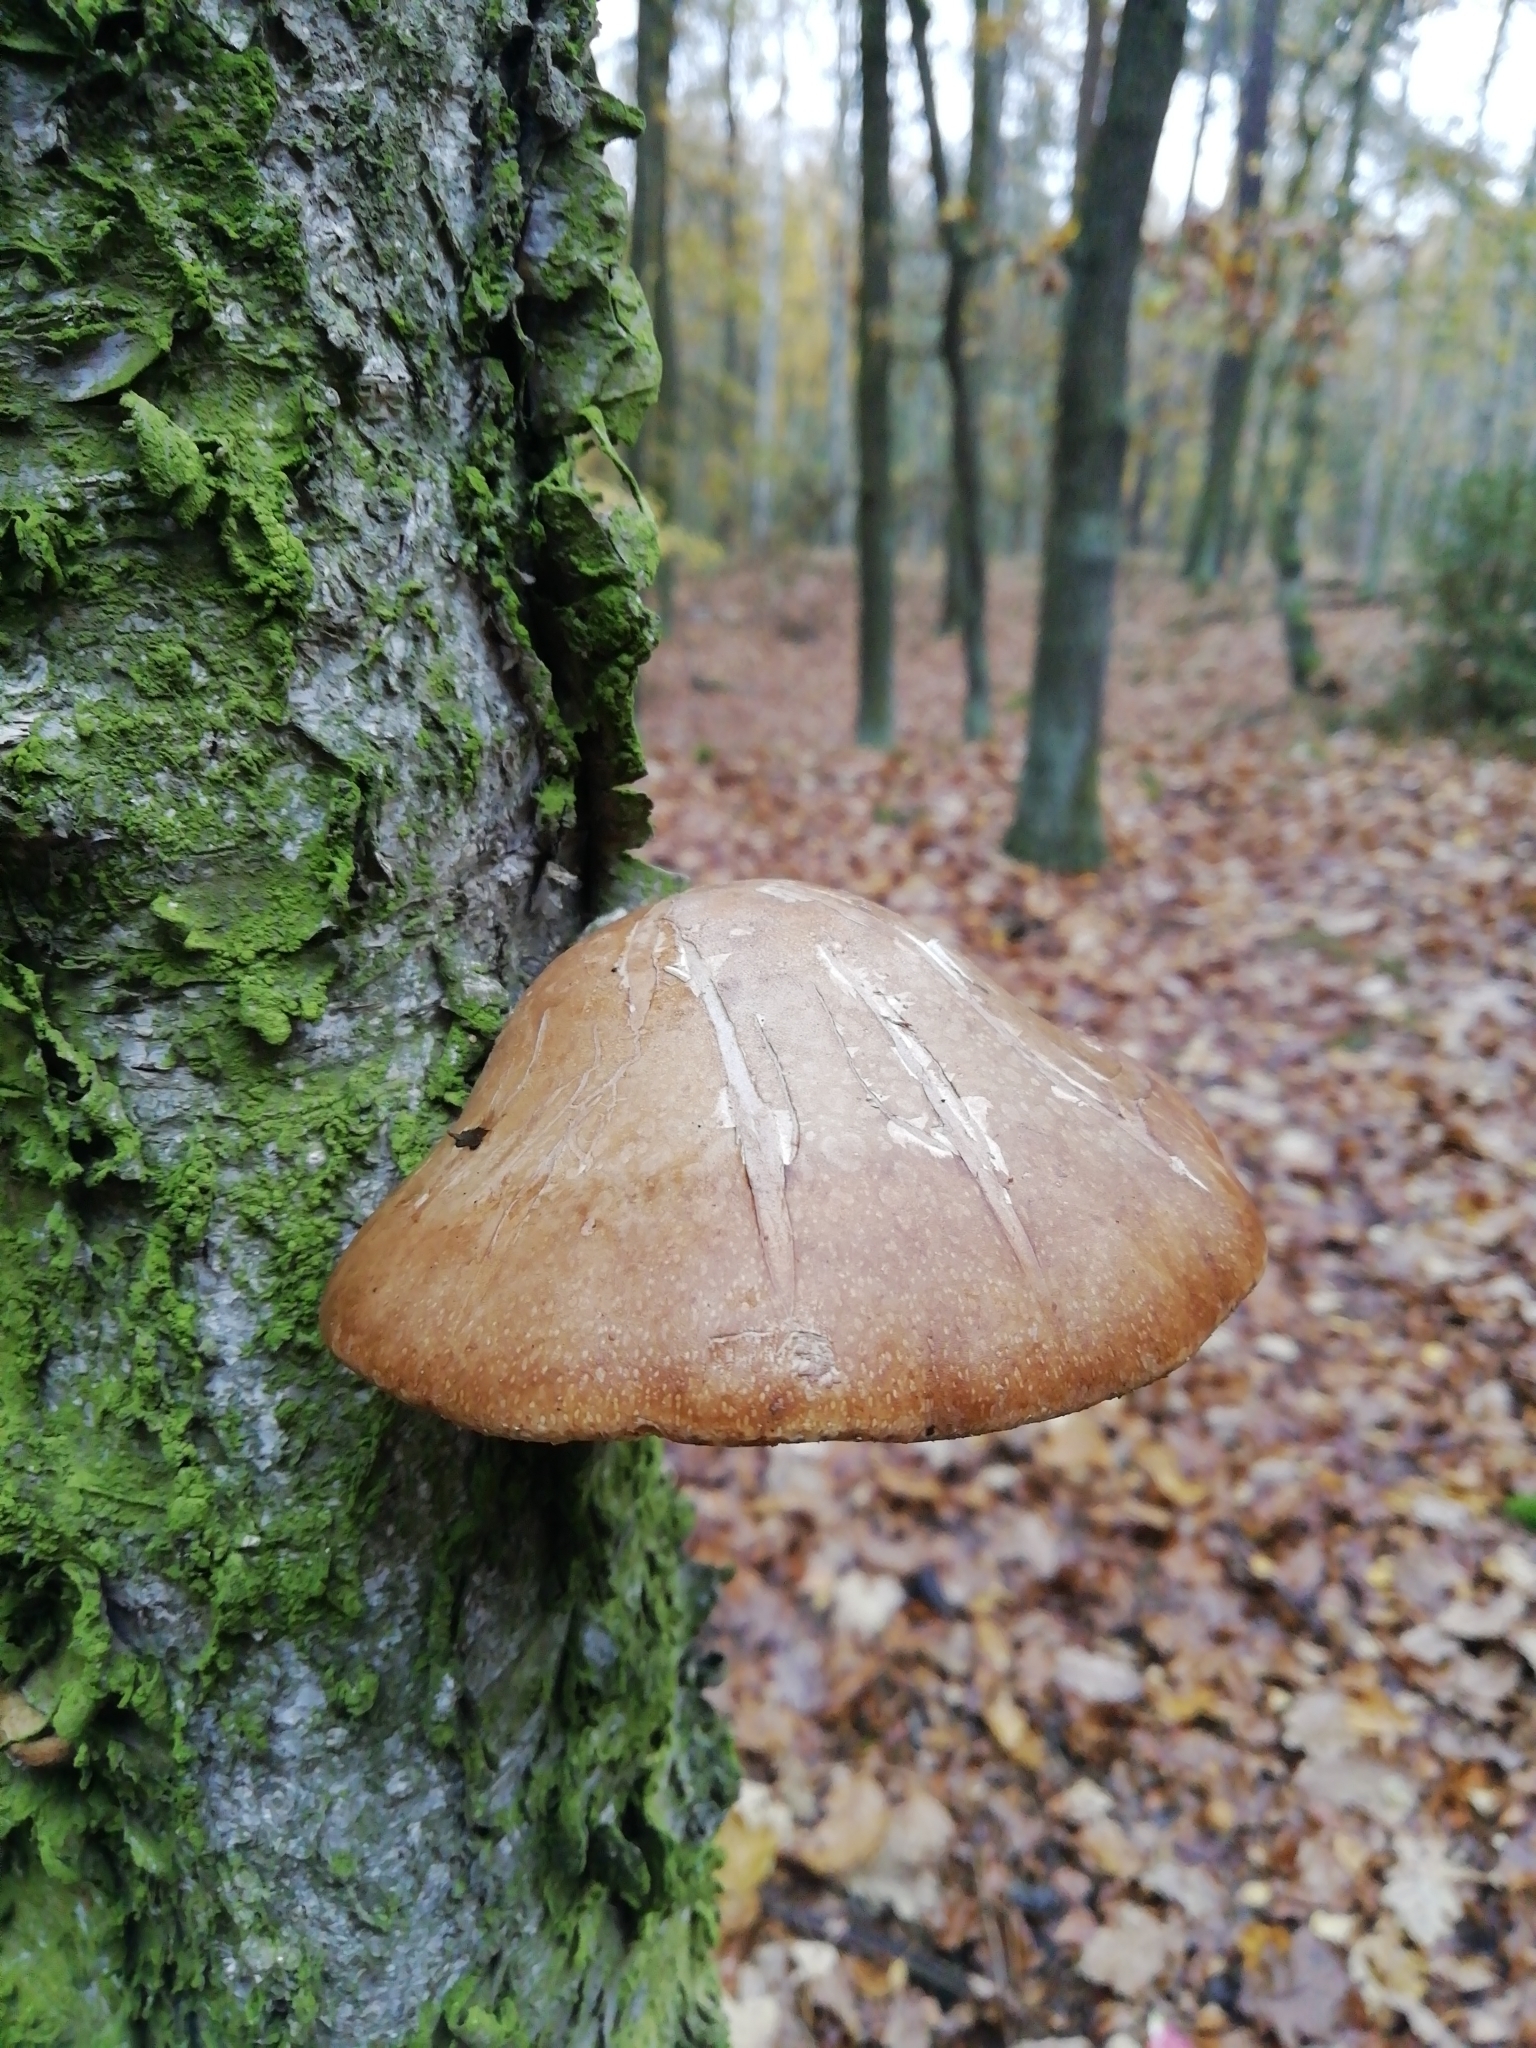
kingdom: Fungi
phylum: Basidiomycota
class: Agaricomycetes
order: Polyporales
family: Fomitopsidaceae
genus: Fomitopsis
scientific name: Fomitopsis betulina
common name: Birch polypore
